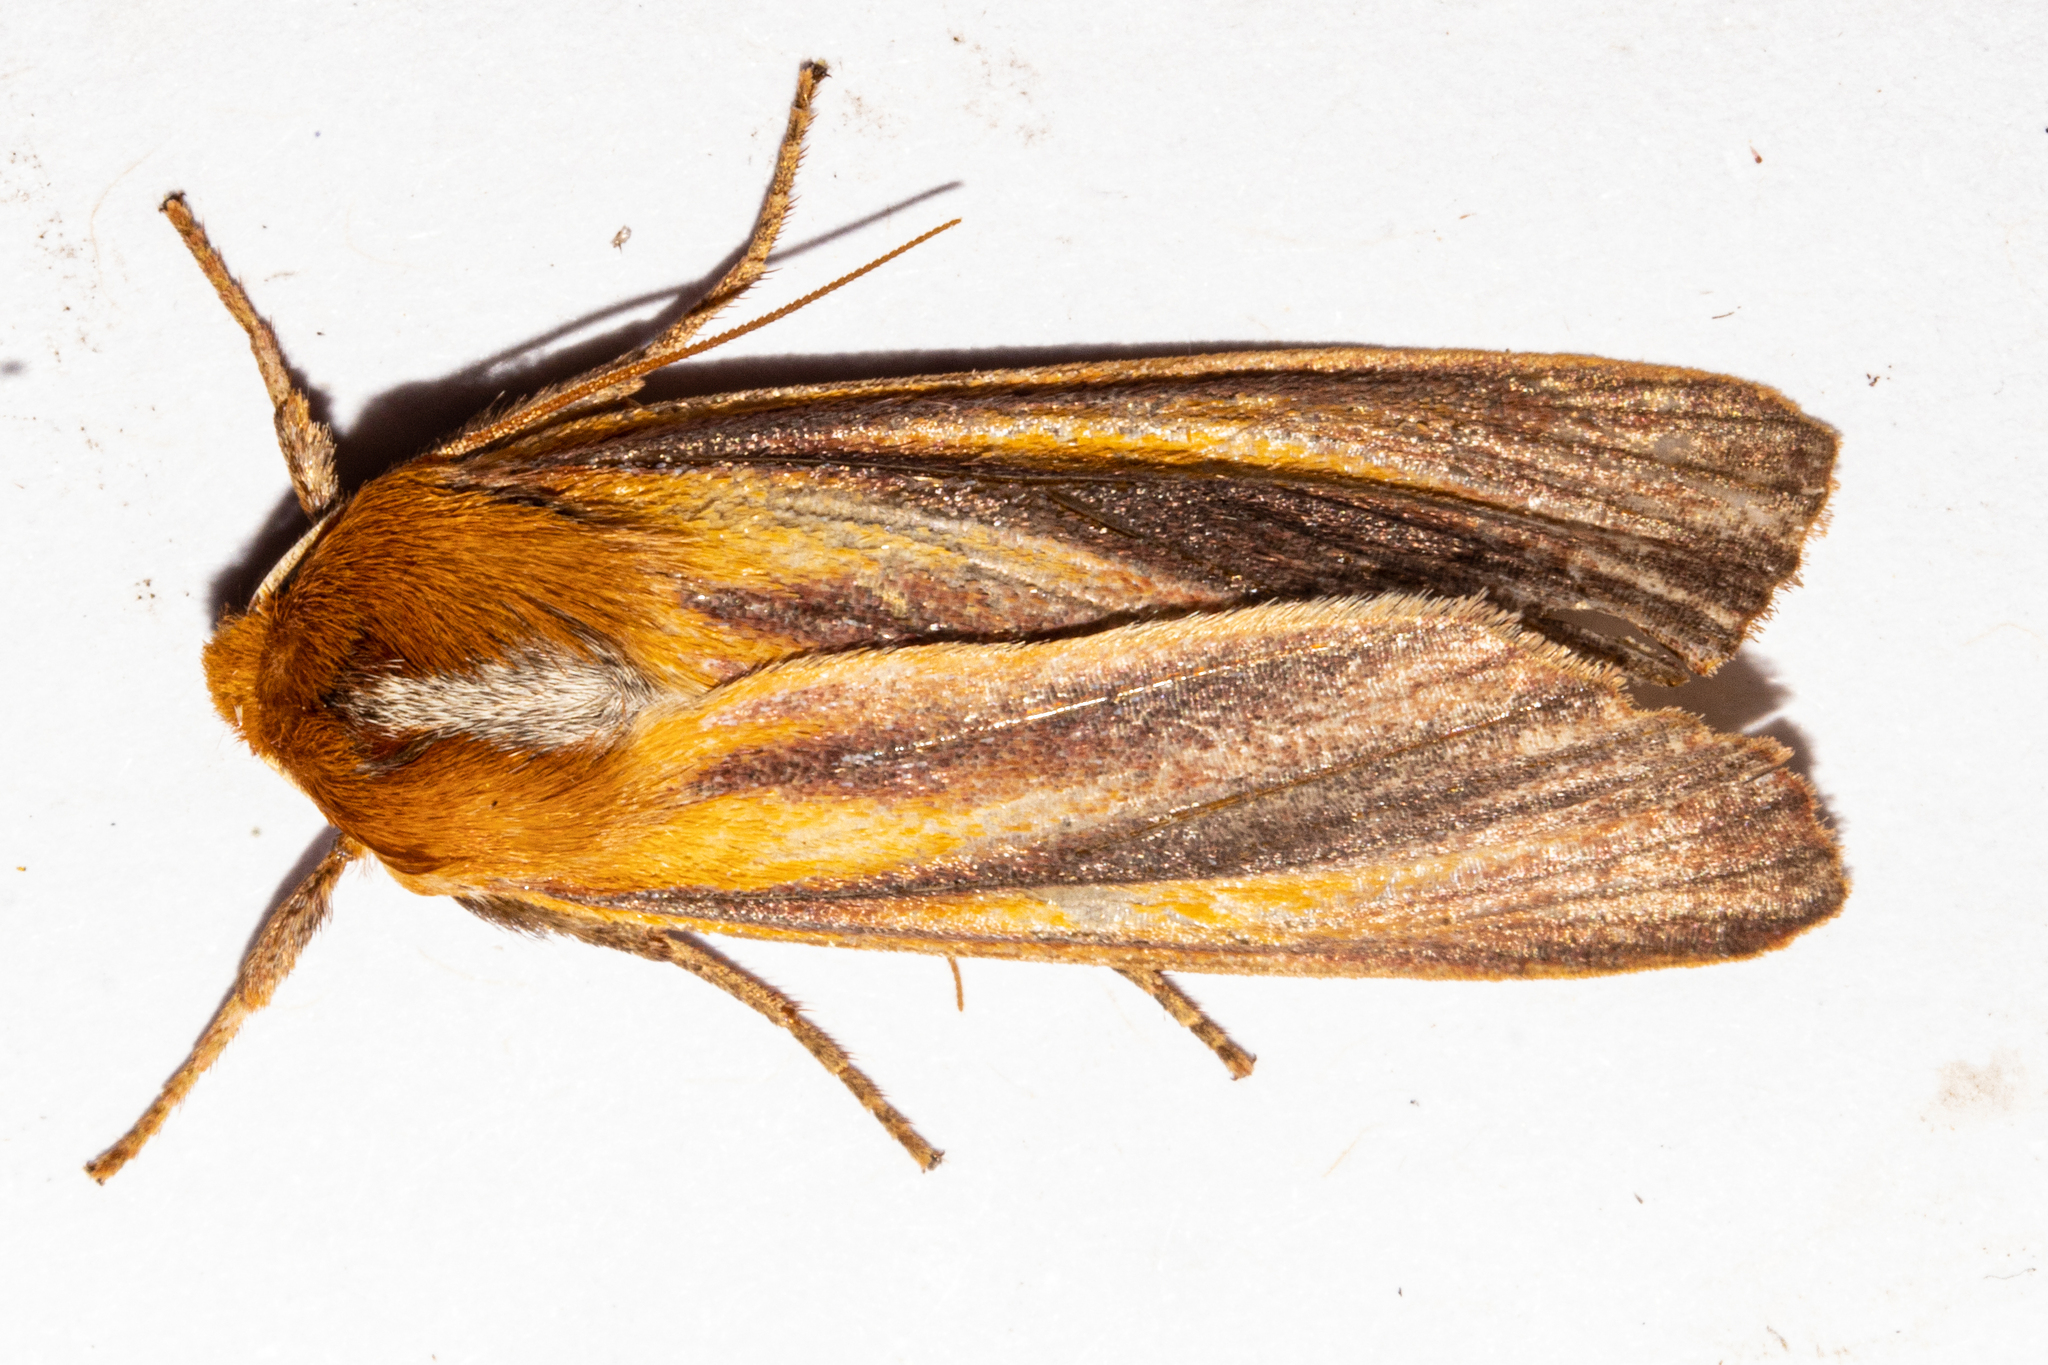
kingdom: Animalia
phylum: Arthropoda
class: Insecta
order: Lepidoptera
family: Noctuidae
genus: Ichneutica
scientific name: Ichneutica
